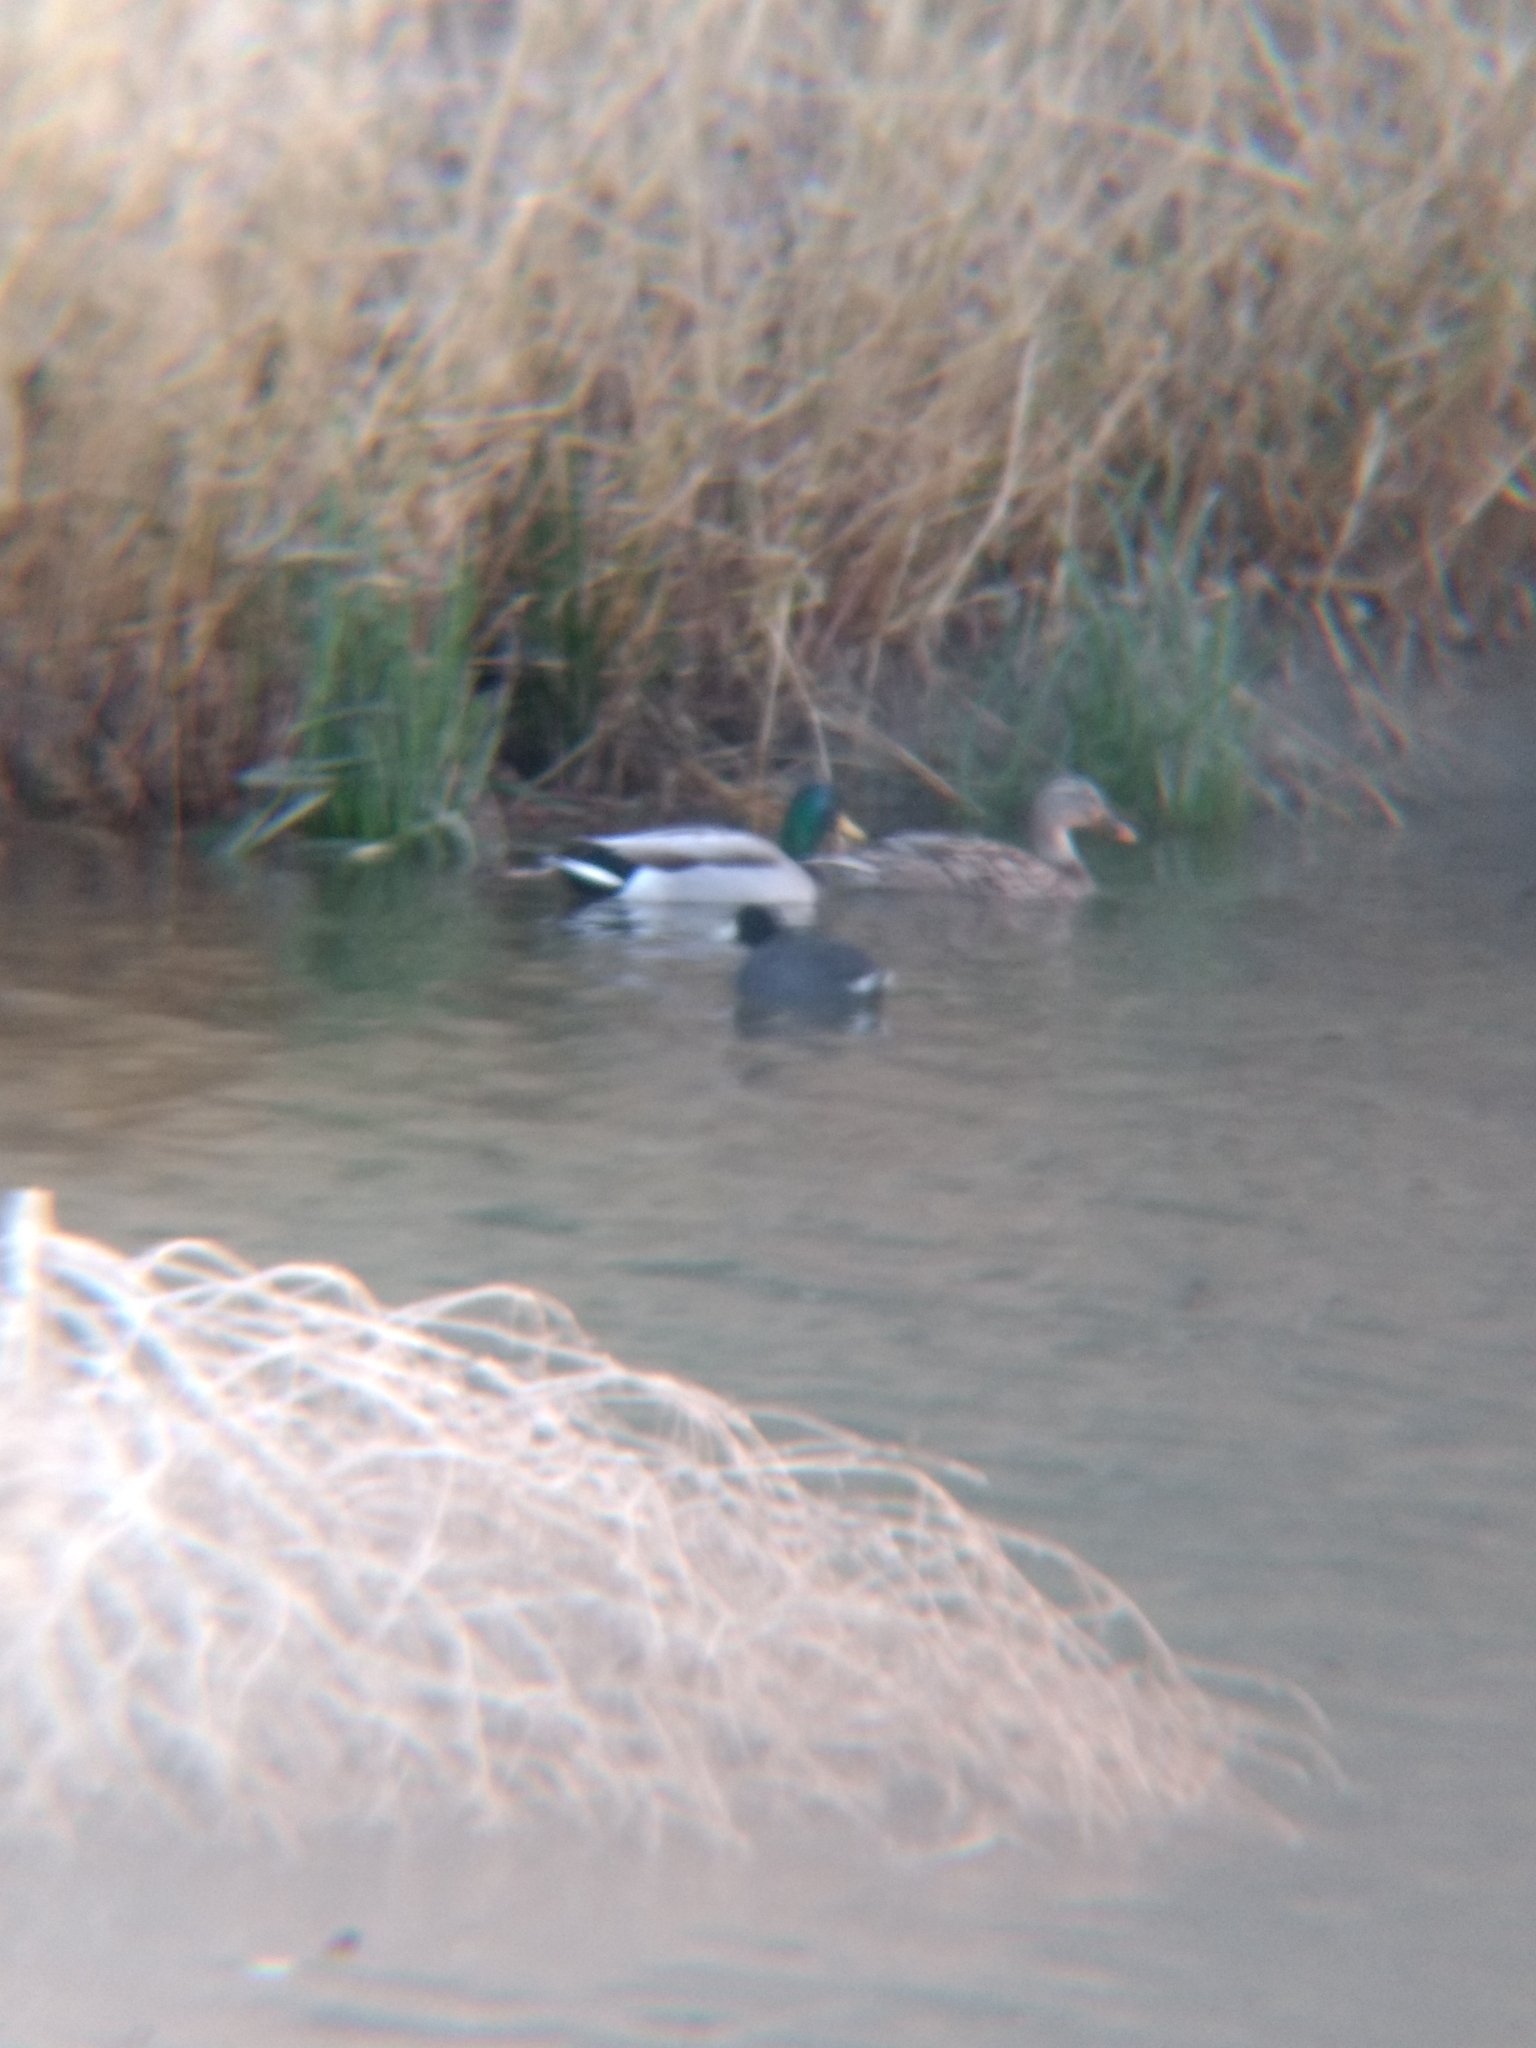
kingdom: Animalia
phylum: Chordata
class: Aves
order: Gruiformes
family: Rallidae
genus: Fulica
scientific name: Fulica americana
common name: American coot
